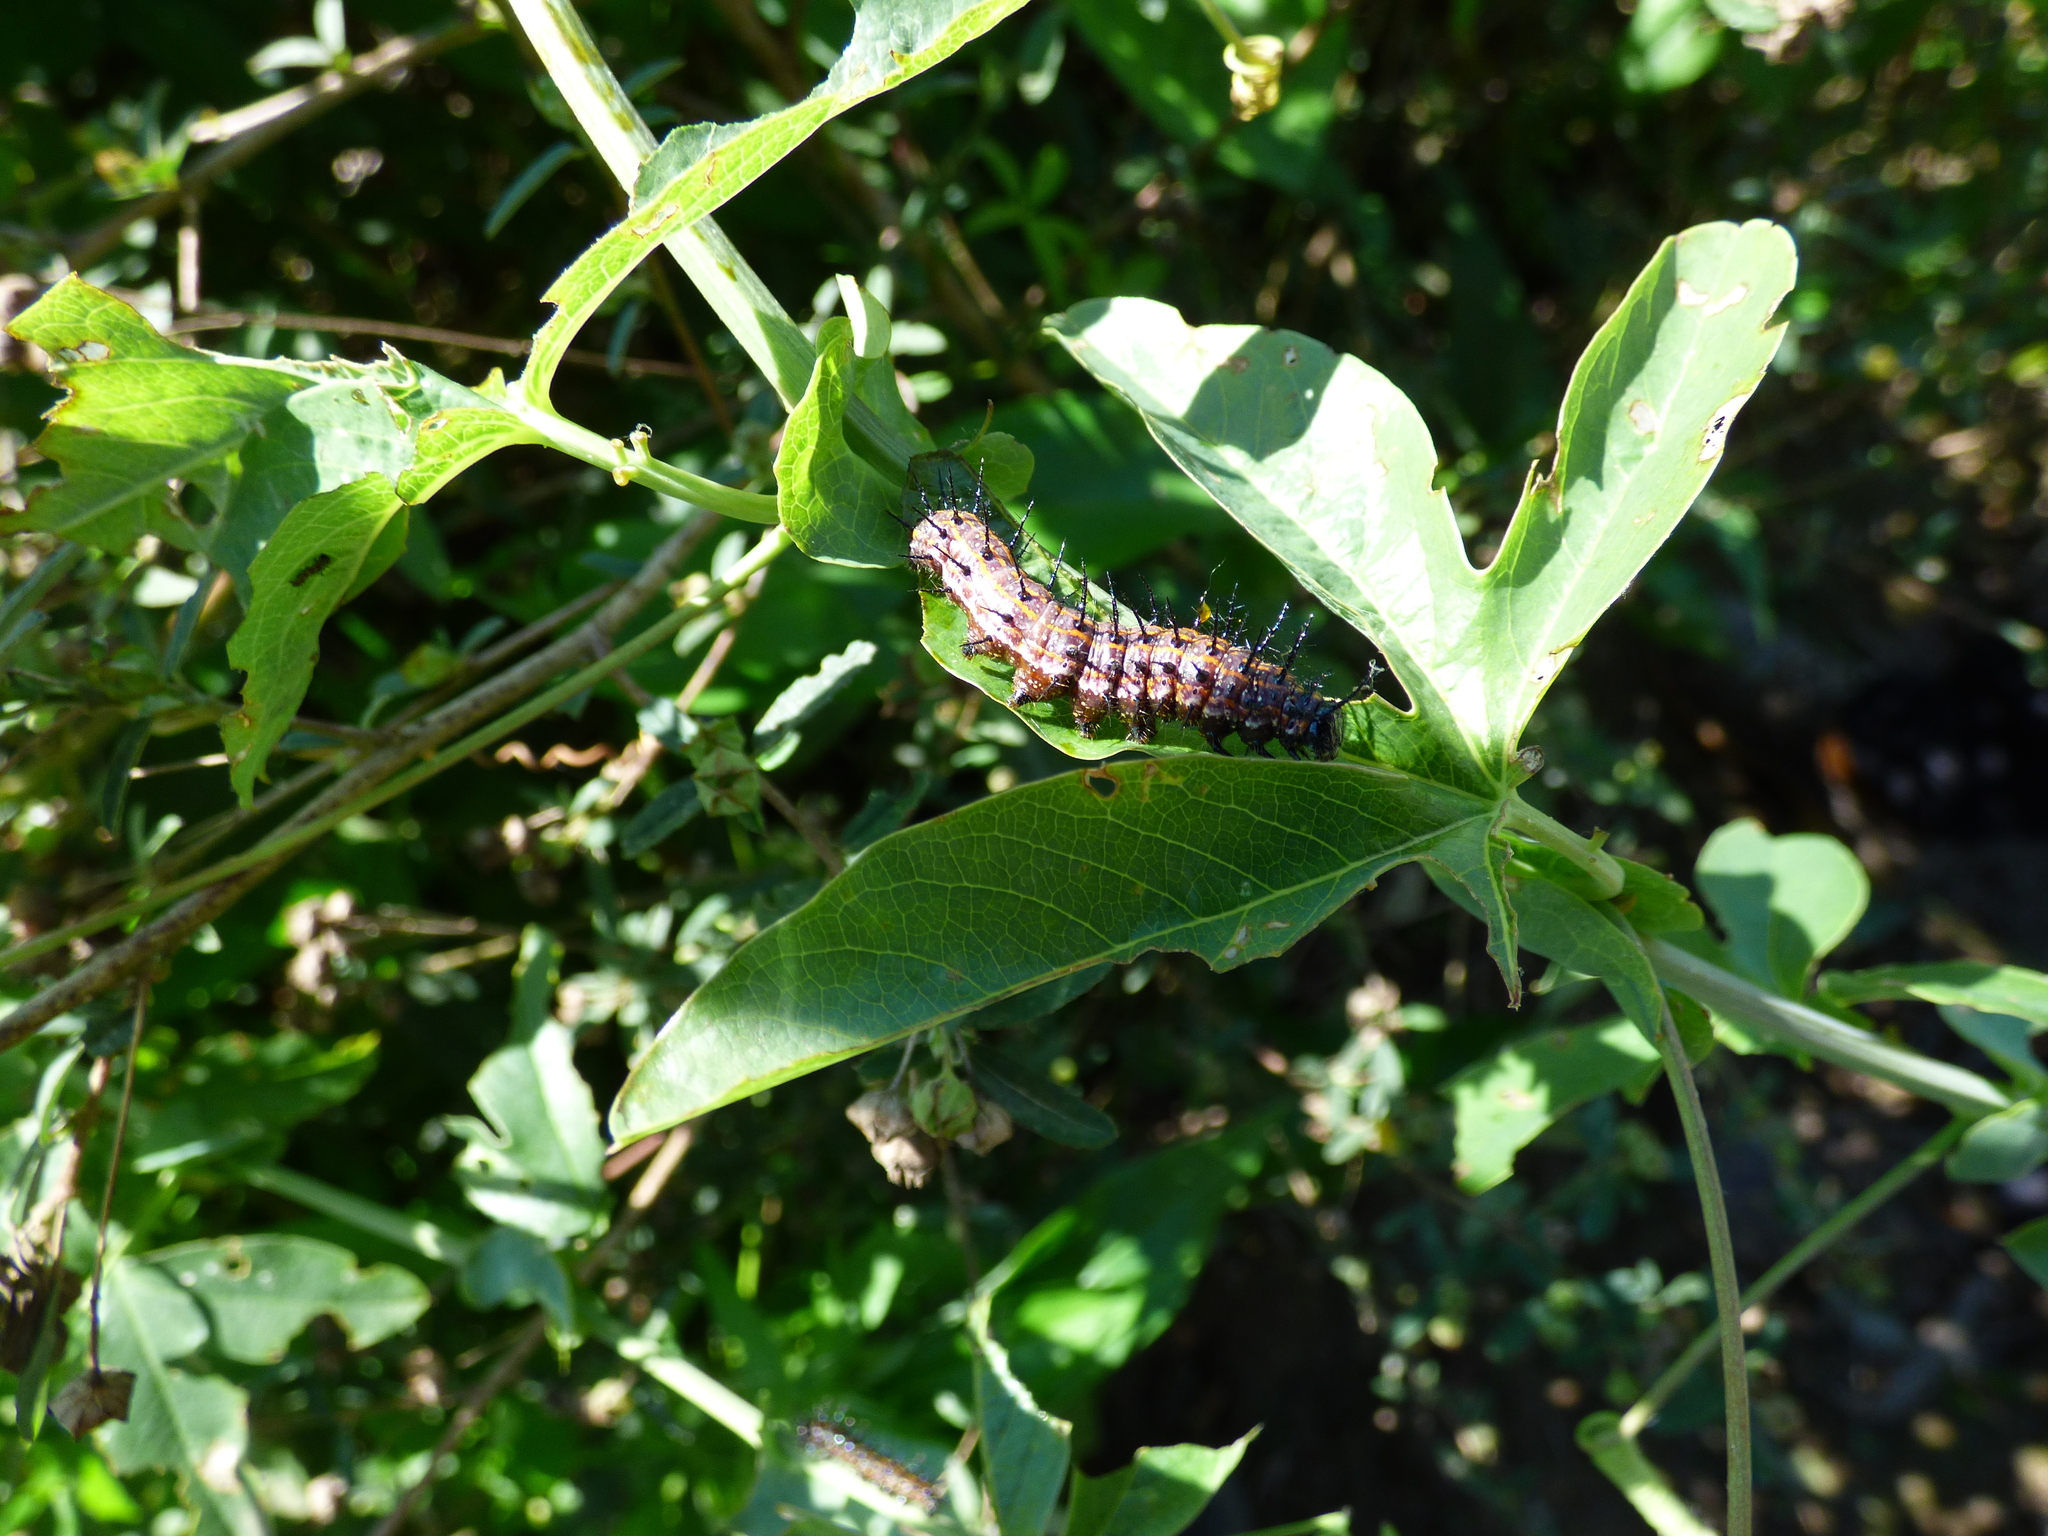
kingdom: Animalia
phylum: Arthropoda
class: Insecta
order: Lepidoptera
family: Nymphalidae
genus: Dione
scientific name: Dione vanillae
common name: Gulf fritillary
